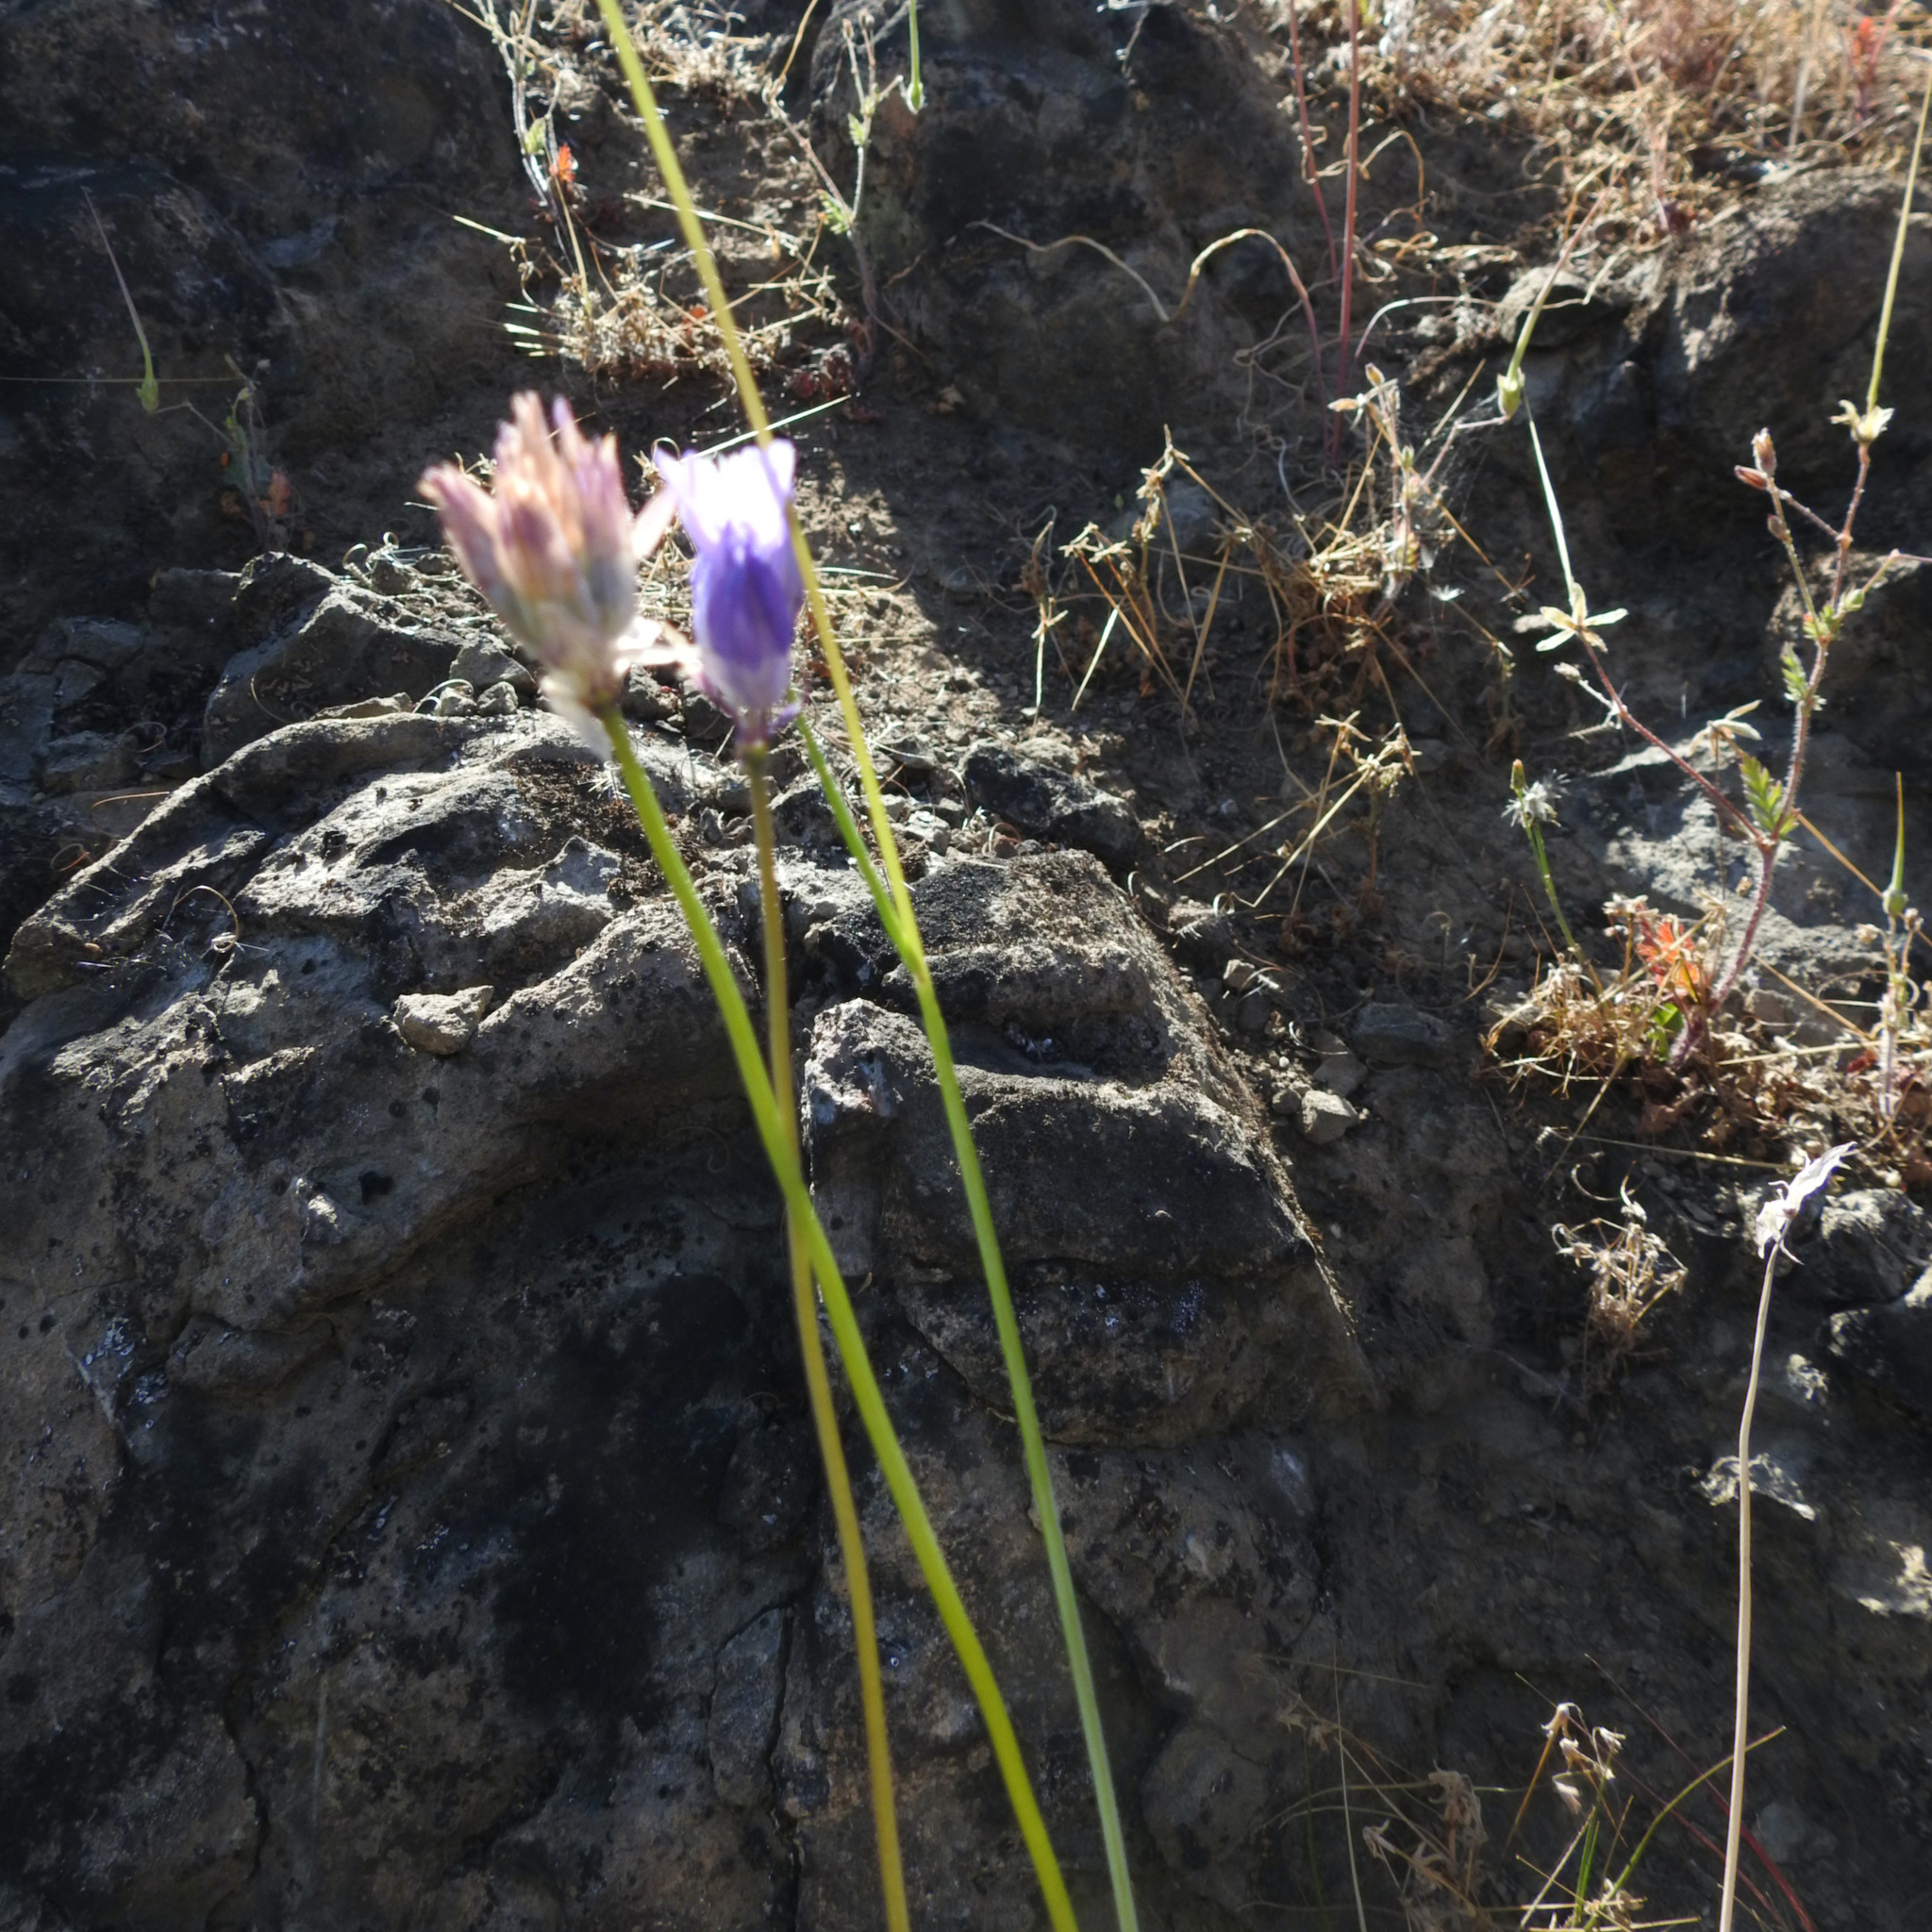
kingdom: Plantae
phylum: Tracheophyta
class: Liliopsida
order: Asparagales
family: Asparagaceae
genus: Dipterostemon
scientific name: Dipterostemon capitatus
